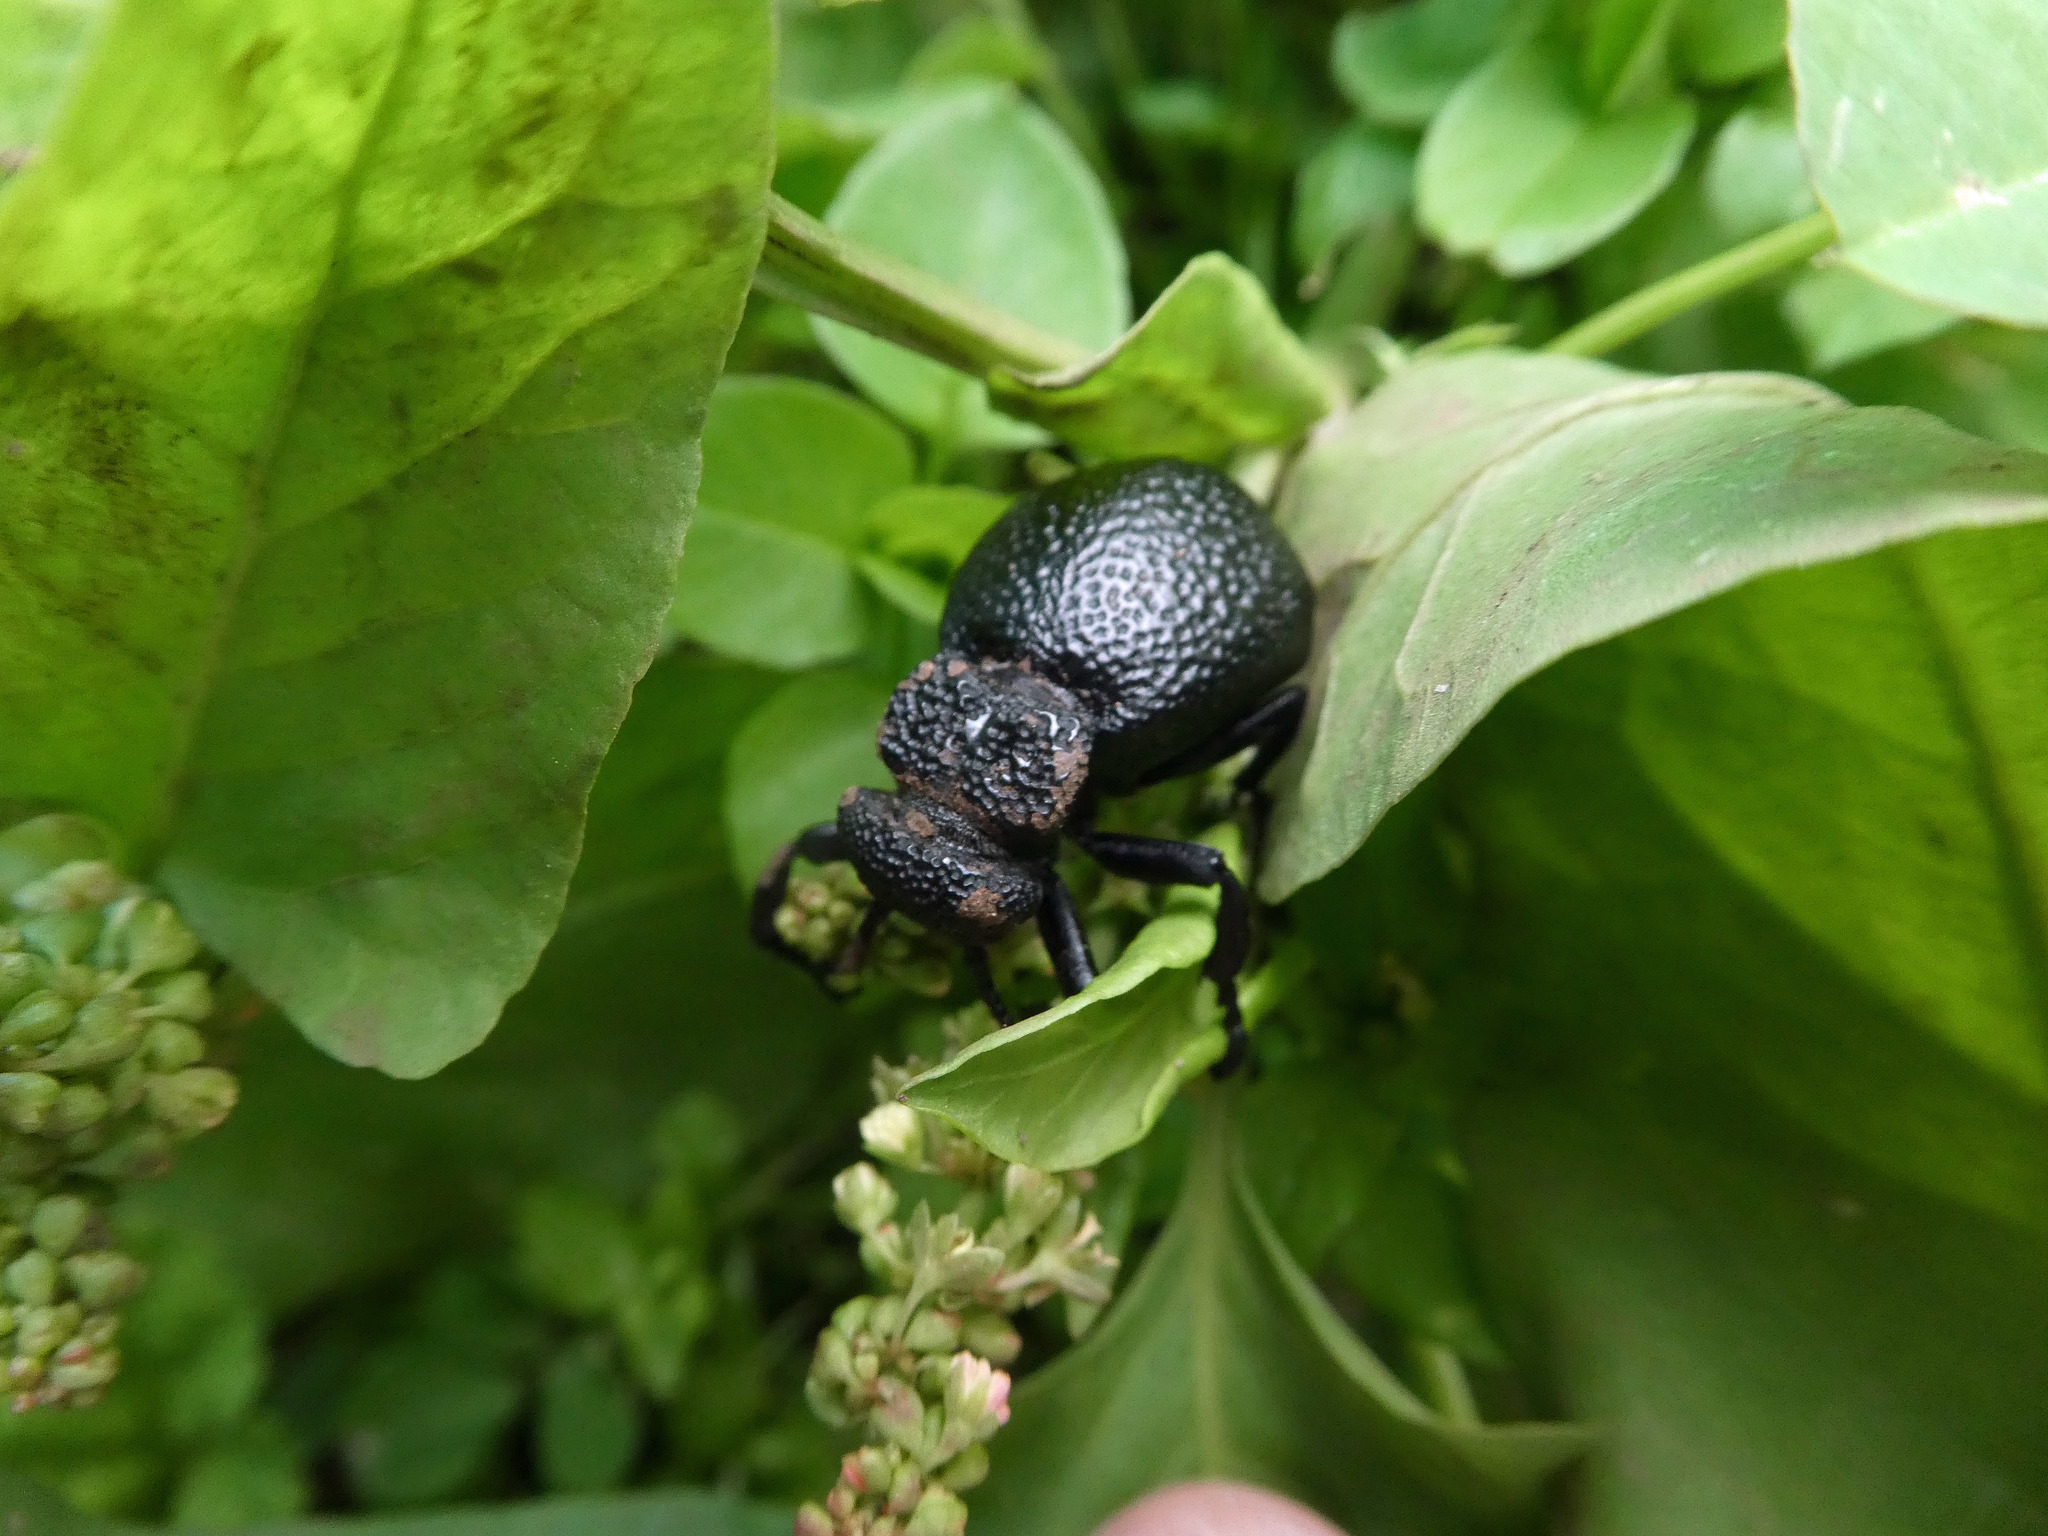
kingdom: Animalia
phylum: Arthropoda
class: Insecta
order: Coleoptera
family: Meloidae
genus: Meloe
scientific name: Meloe tuccius
